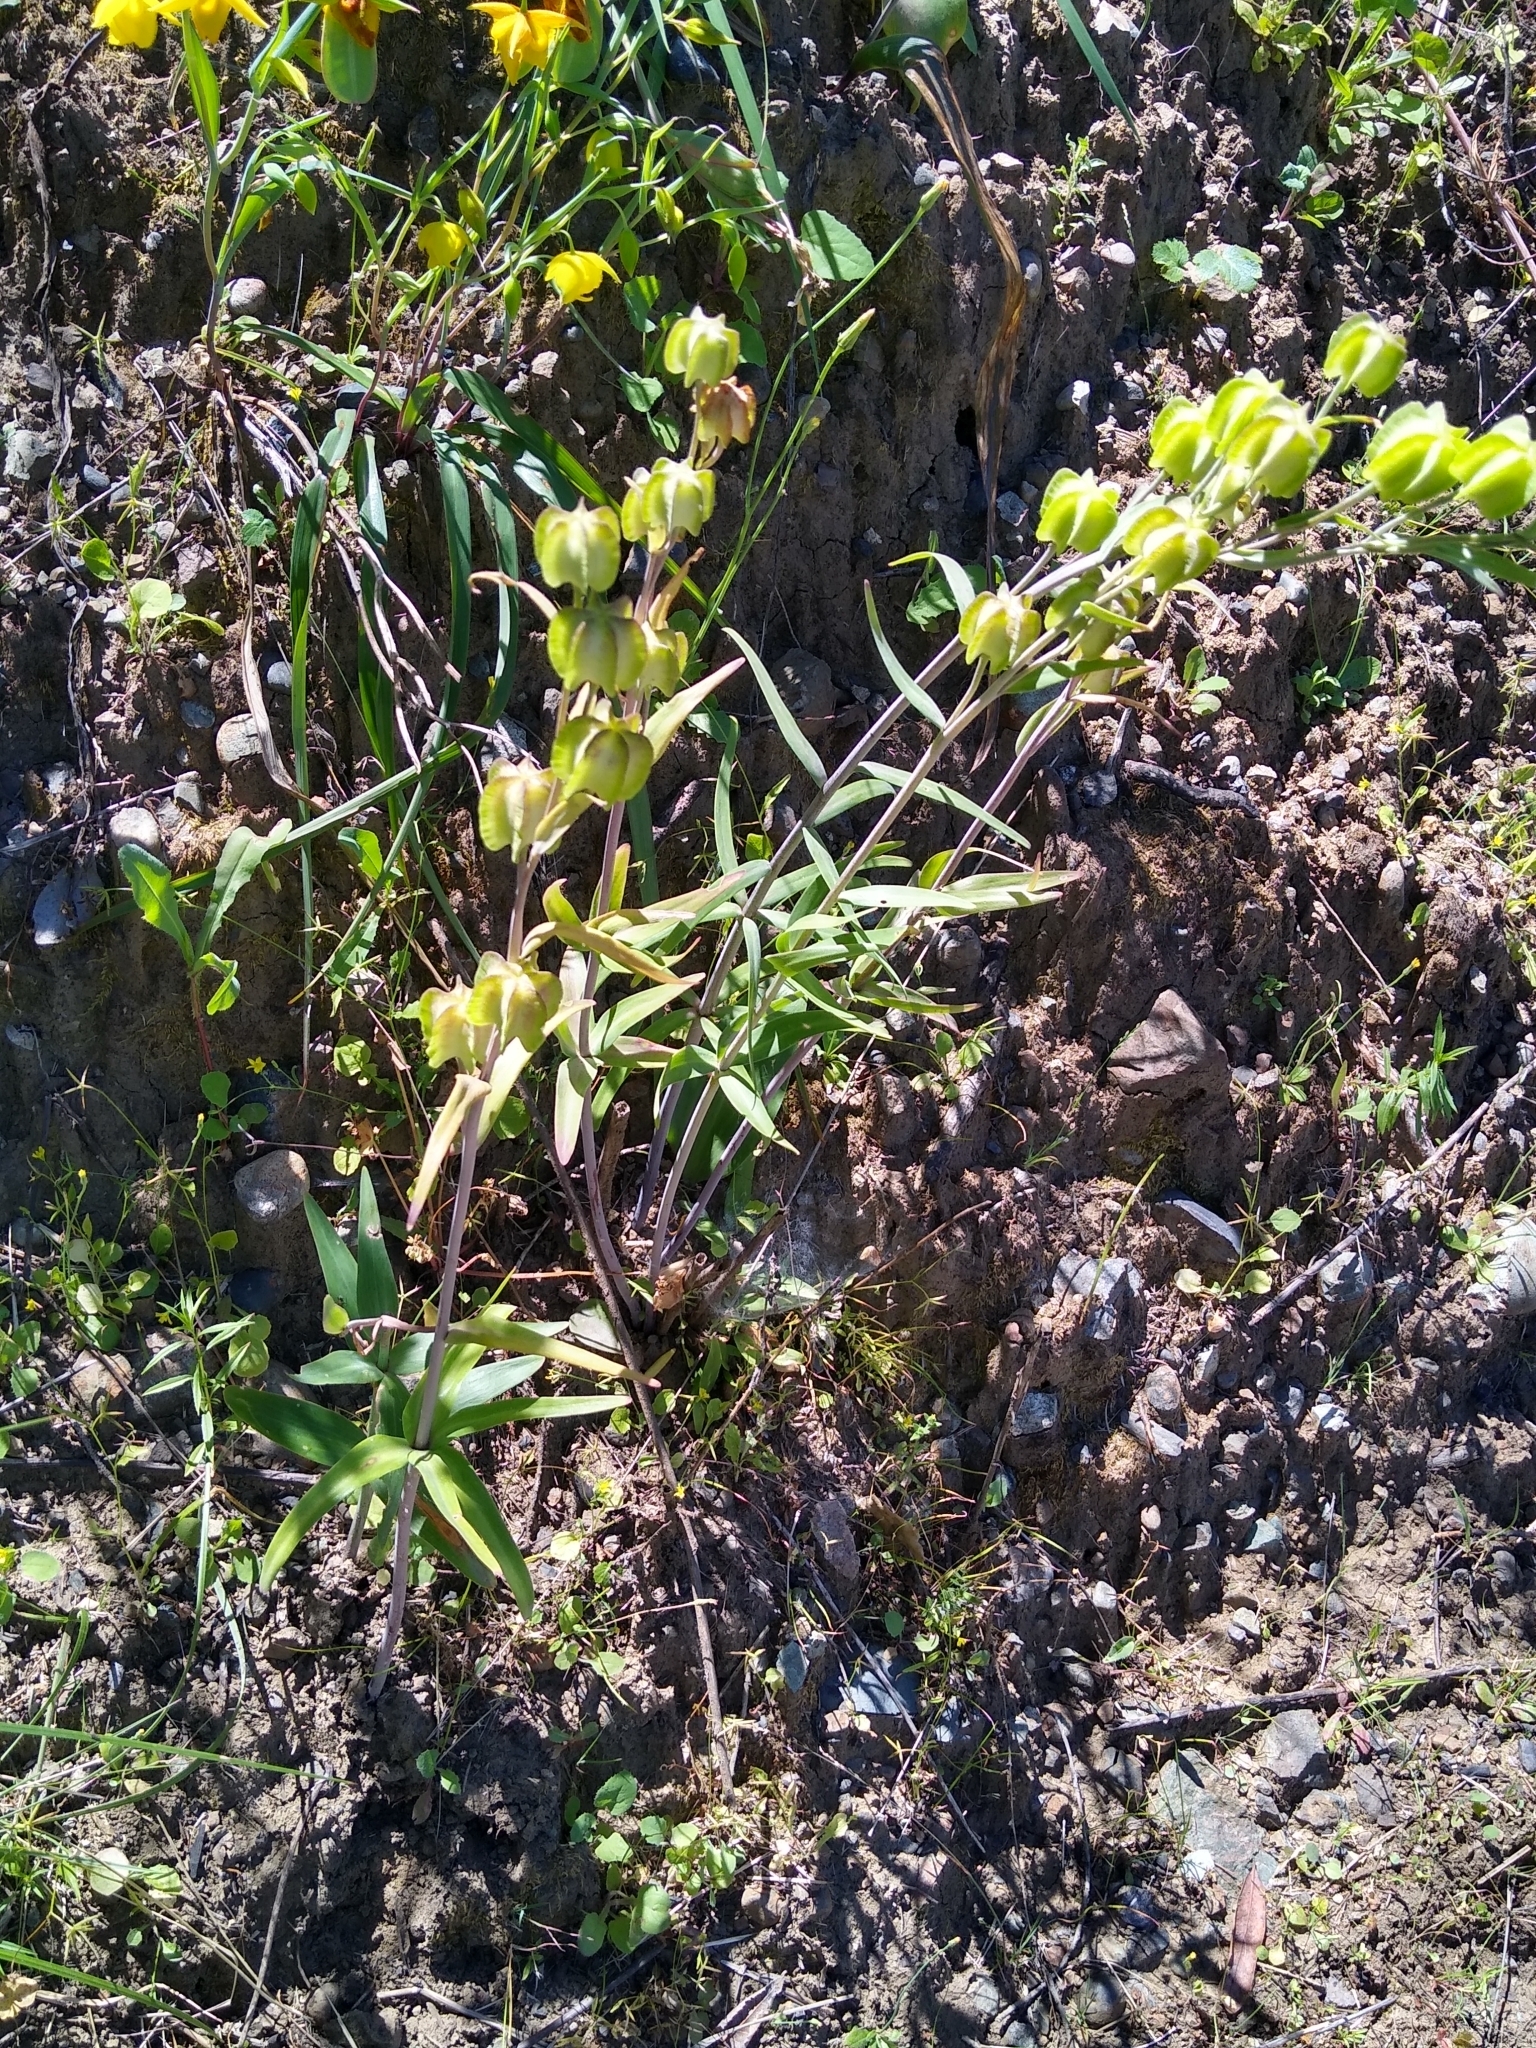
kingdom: Plantae
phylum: Tracheophyta
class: Liliopsida
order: Liliales
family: Liliaceae
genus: Fritillaria
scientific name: Fritillaria affinis
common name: Ojai fritillary
